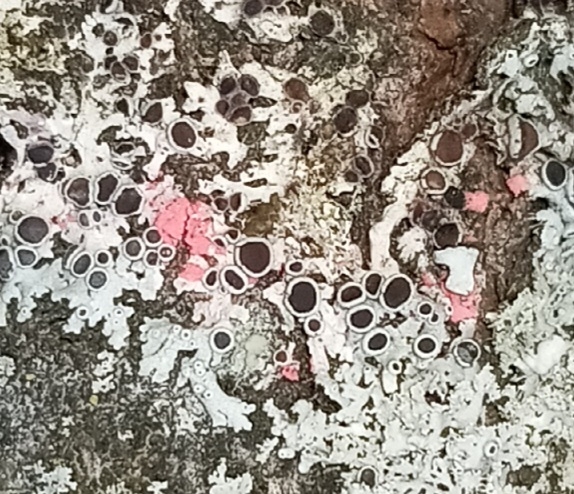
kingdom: Fungi
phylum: Ascomycota
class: Sordariomycetes
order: Hypocreales
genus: Illosporiopsis
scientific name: Illosporiopsis christiansenii
